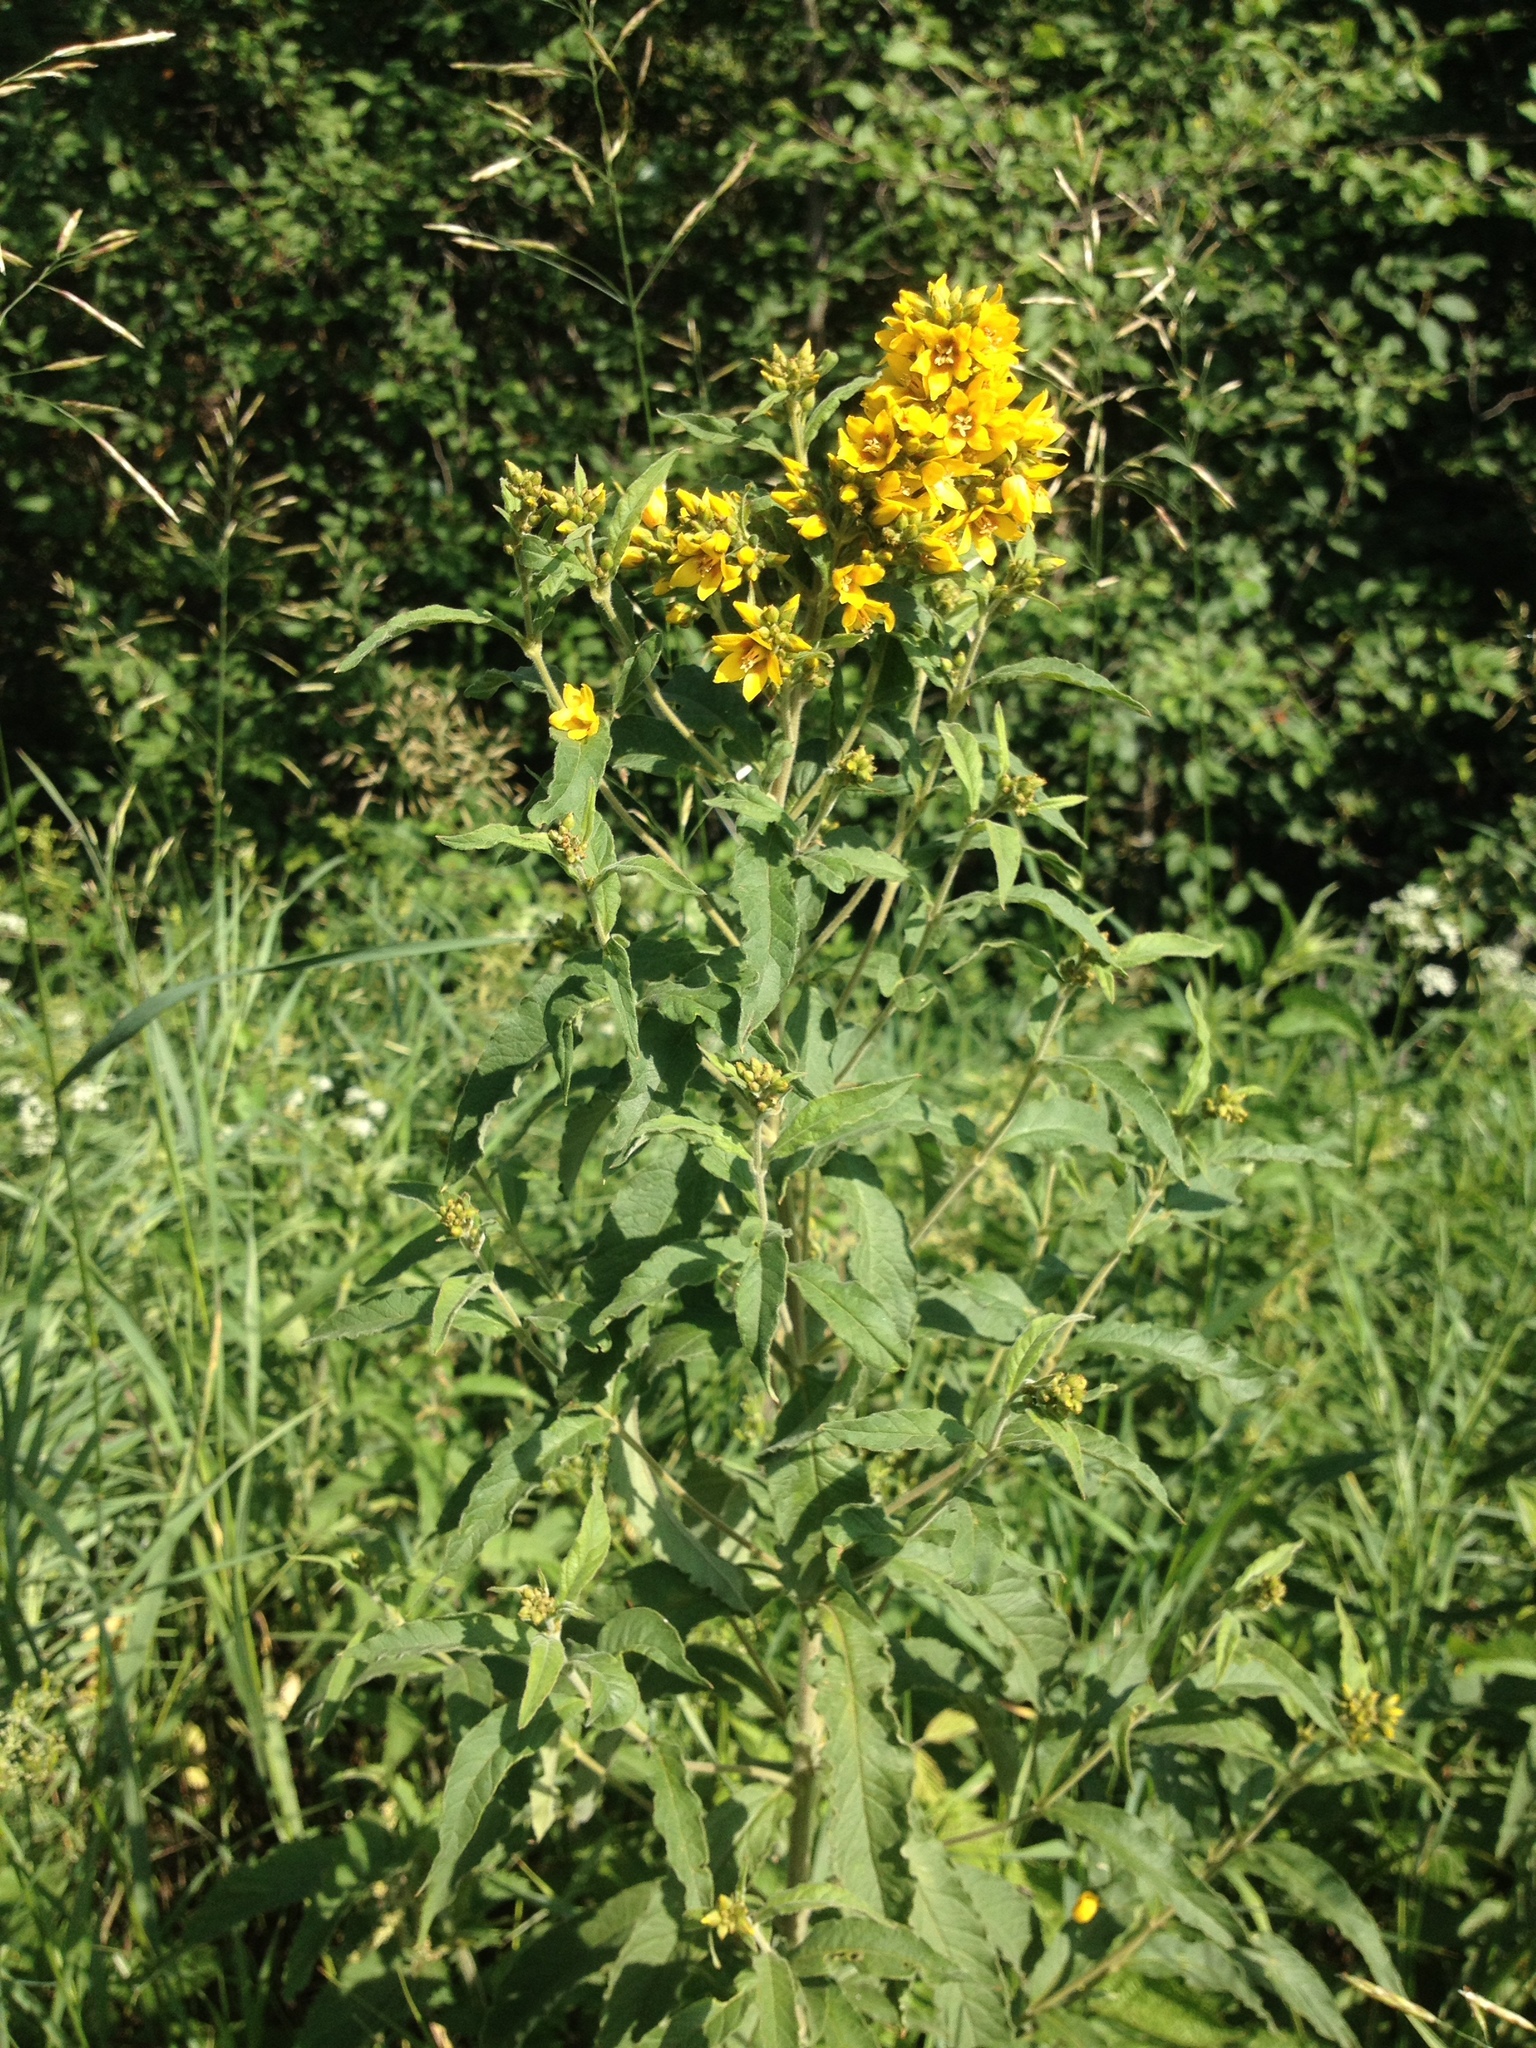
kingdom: Plantae
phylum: Tracheophyta
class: Magnoliopsida
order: Ericales
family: Primulaceae
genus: Lysimachia
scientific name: Lysimachia vulgaris
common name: Yellow loosestrife
